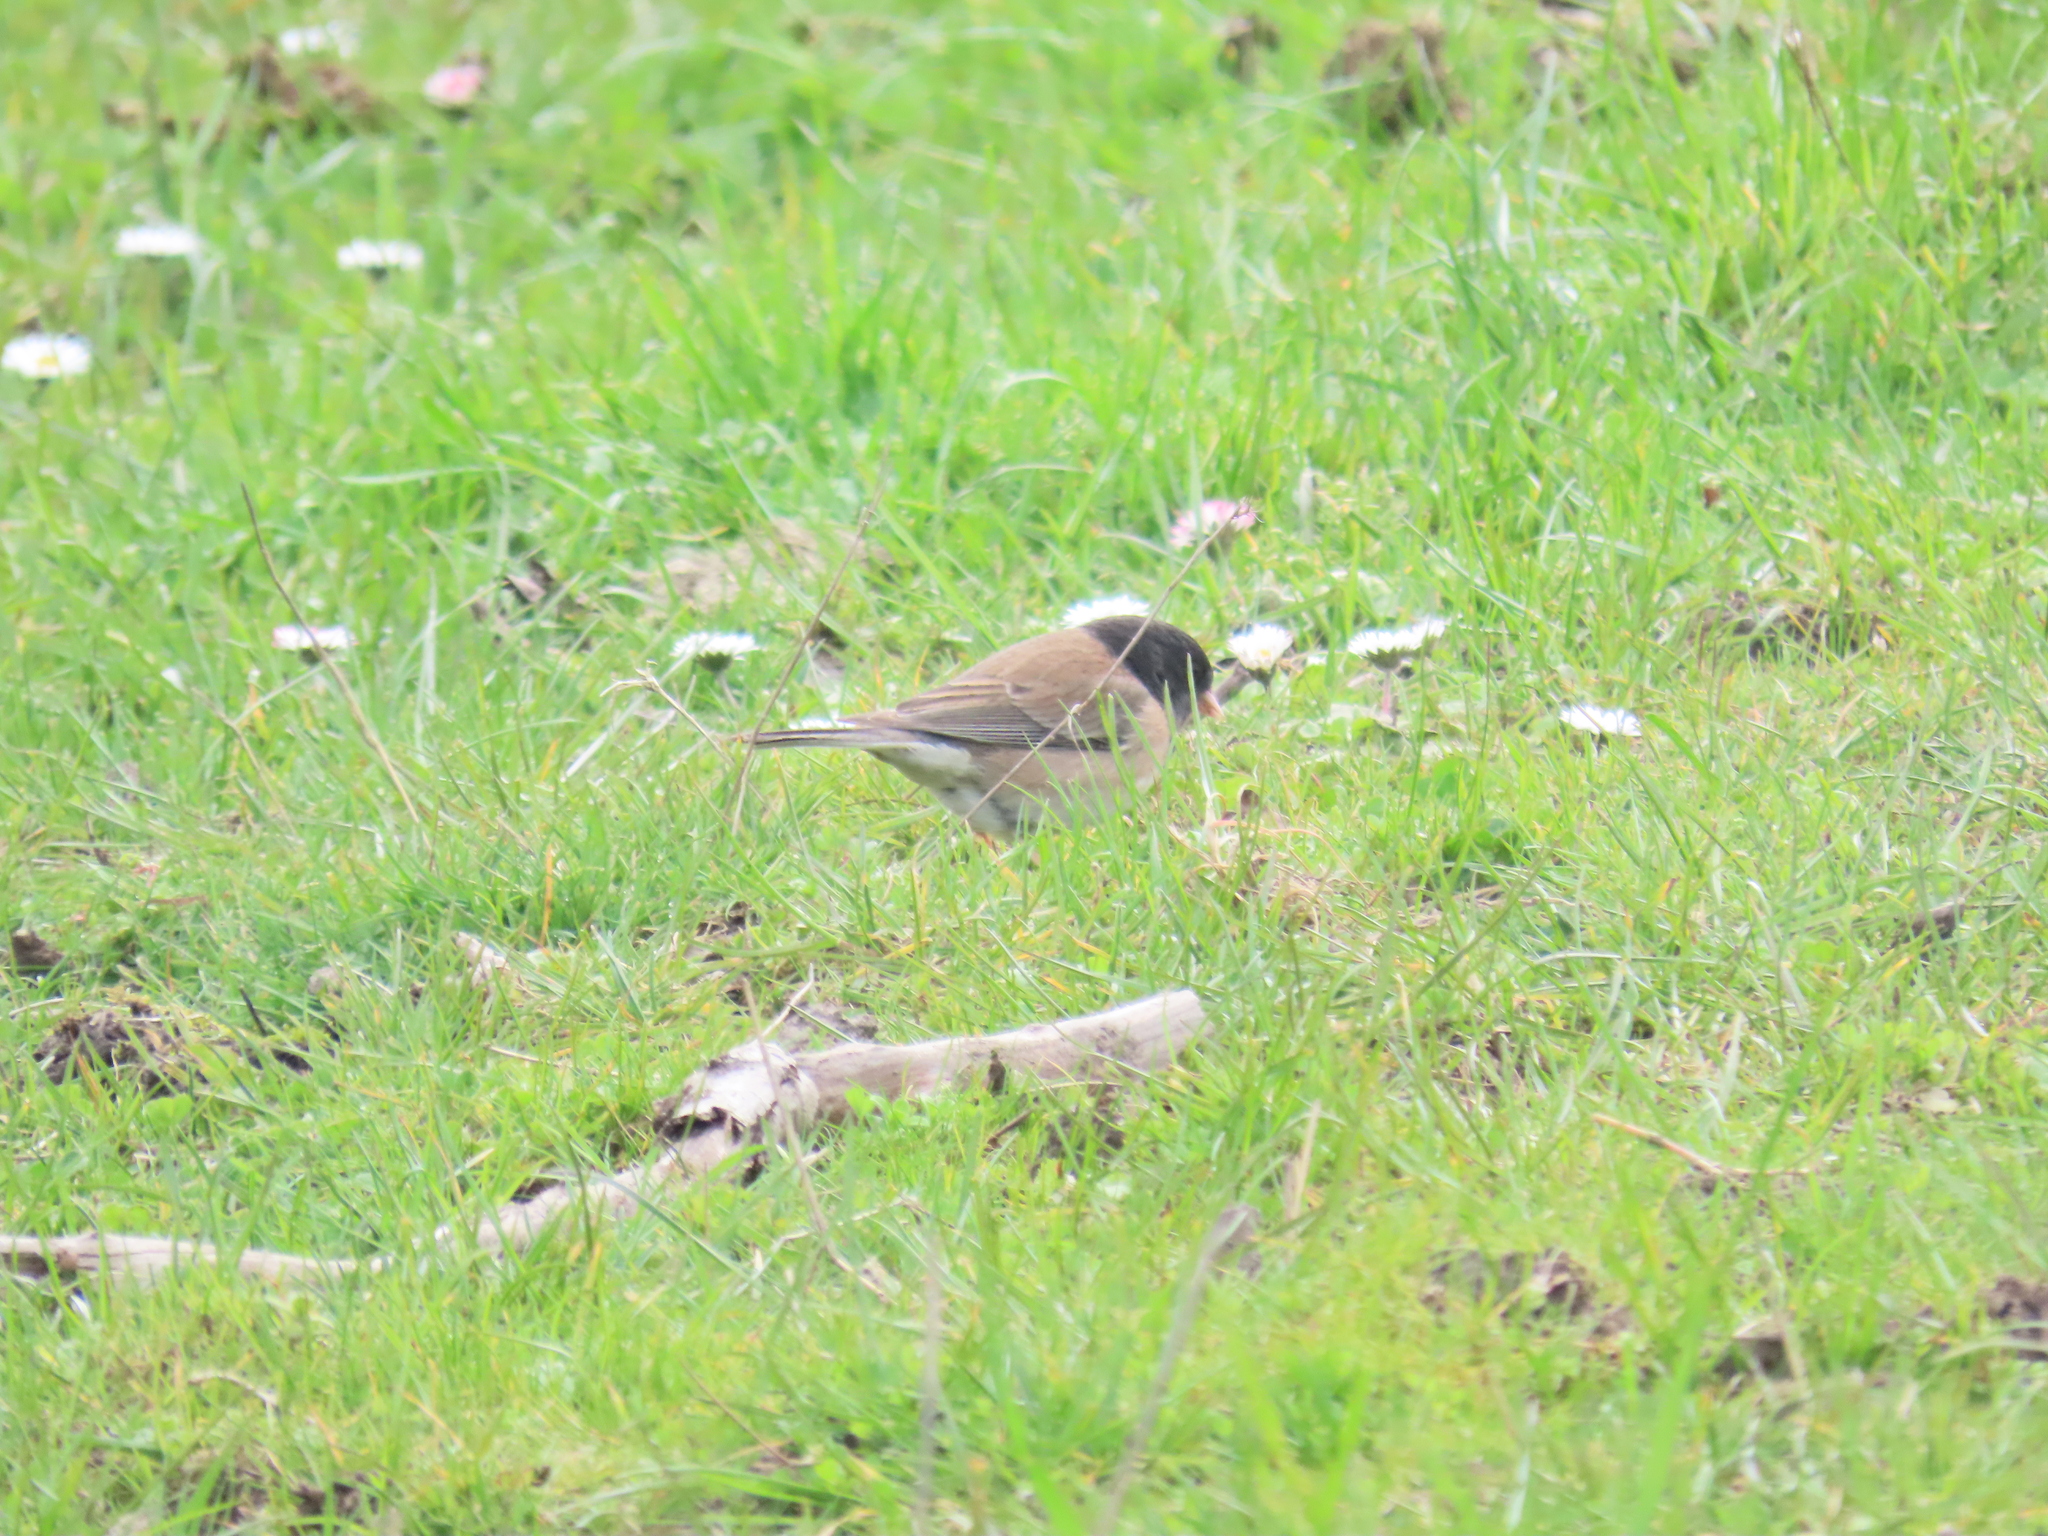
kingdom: Animalia
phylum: Chordata
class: Aves
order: Passeriformes
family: Passerellidae
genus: Junco
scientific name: Junco hyemalis
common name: Dark-eyed junco
